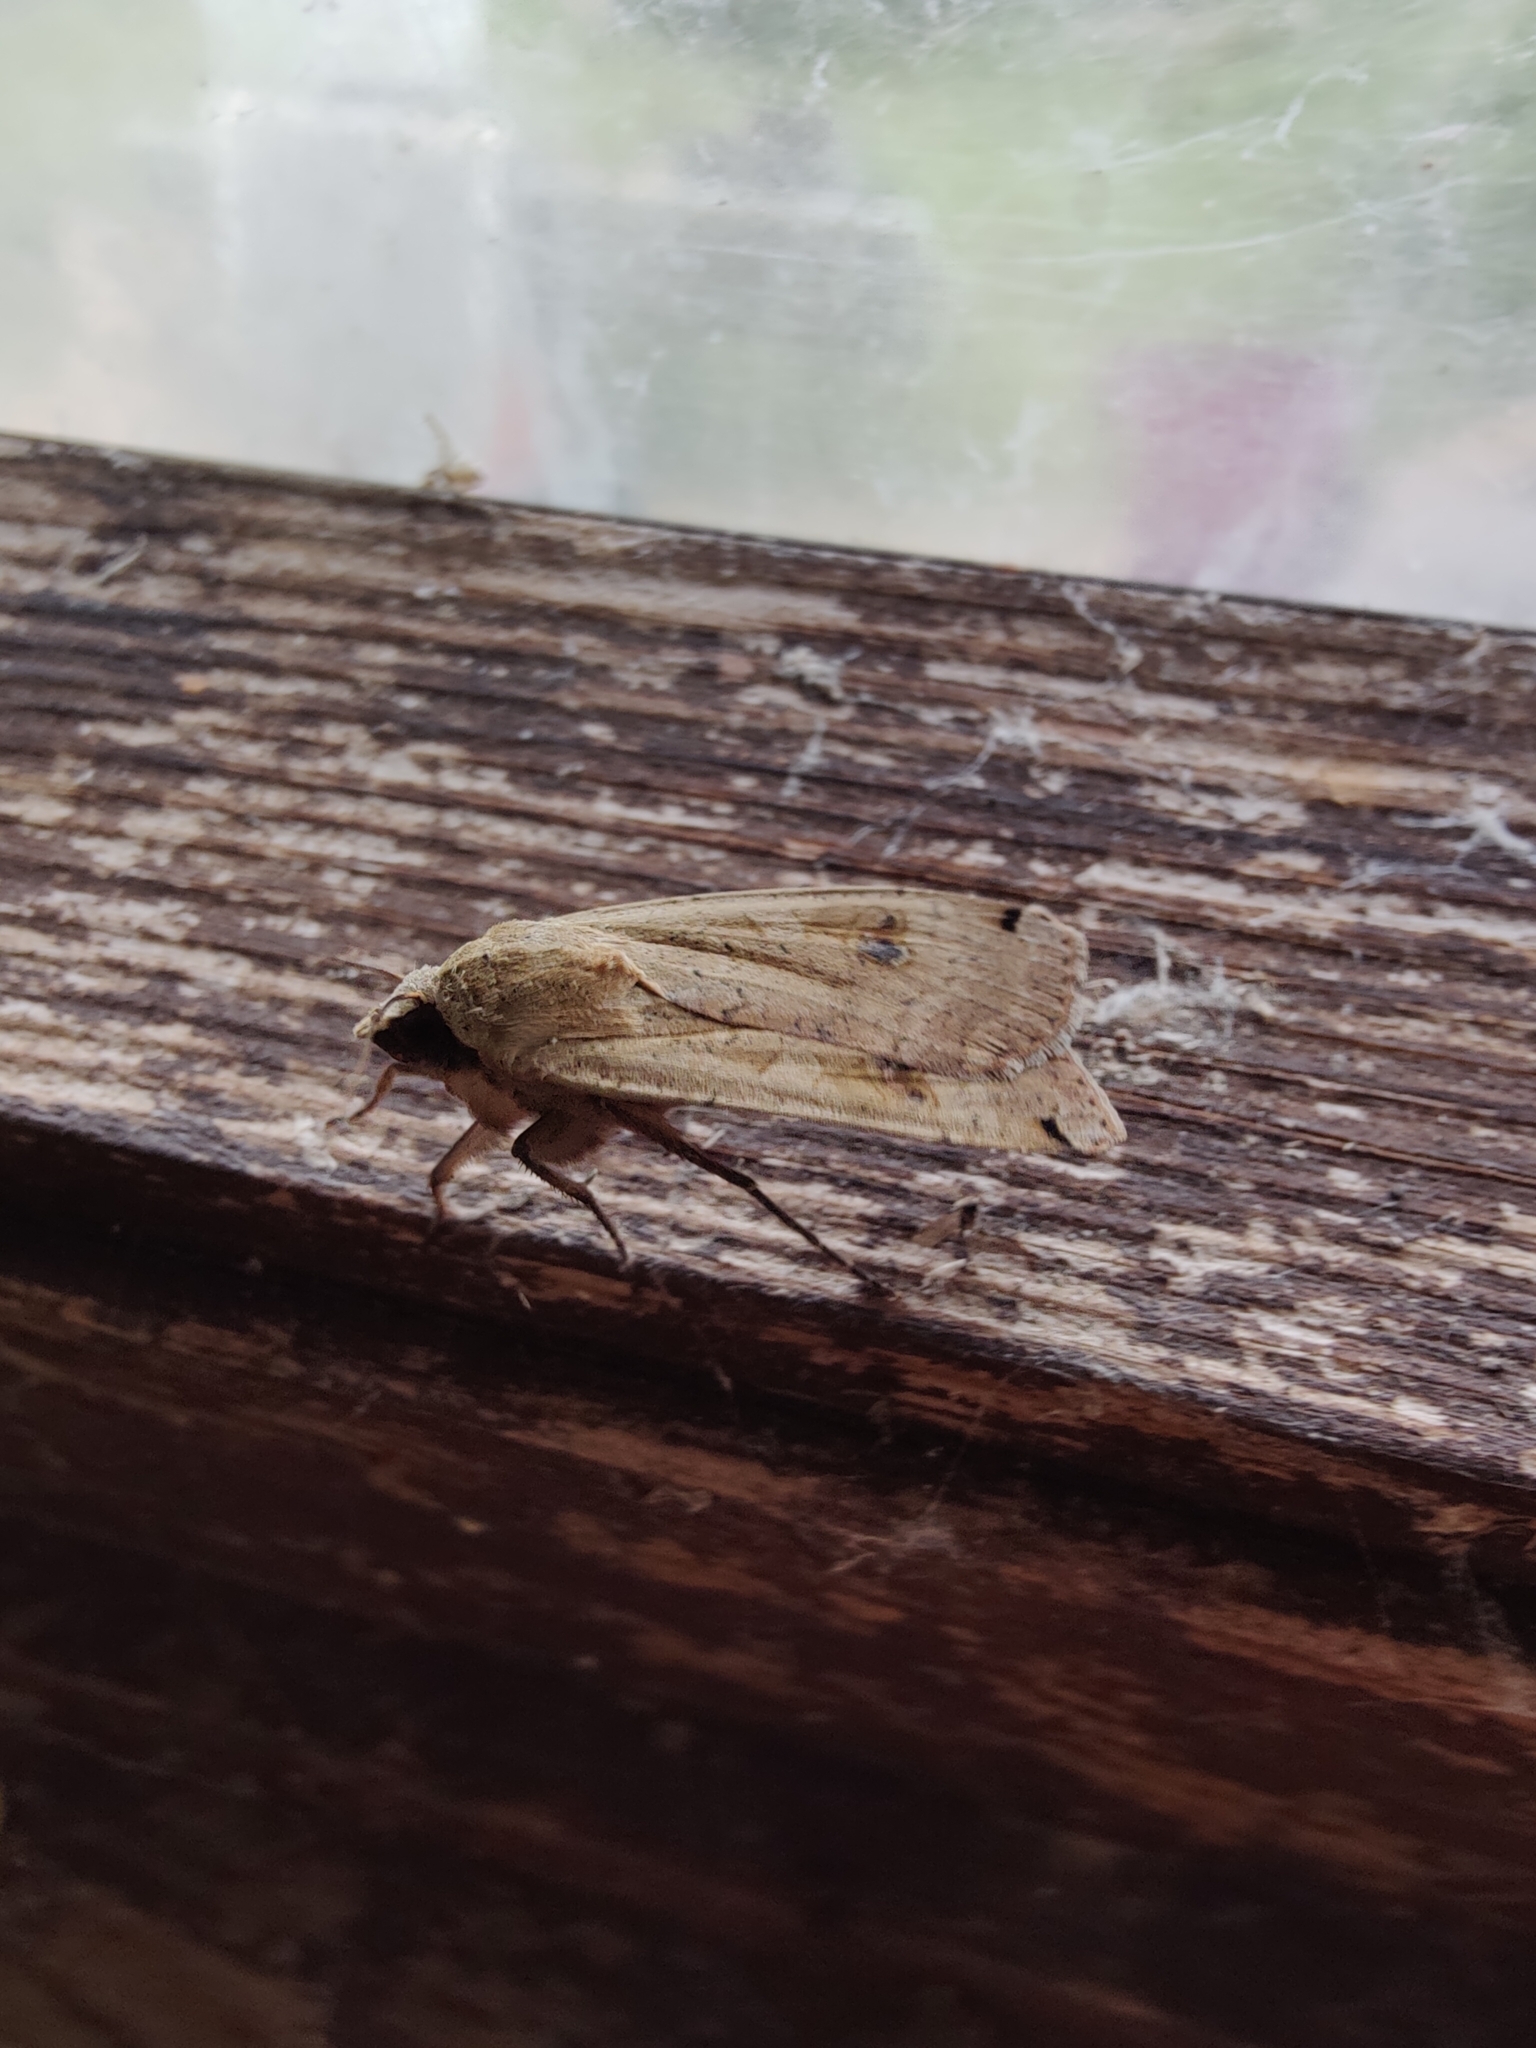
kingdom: Animalia
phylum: Arthropoda
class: Insecta
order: Lepidoptera
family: Noctuidae
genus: Noctua
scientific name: Noctua pronuba
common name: Large yellow underwing
